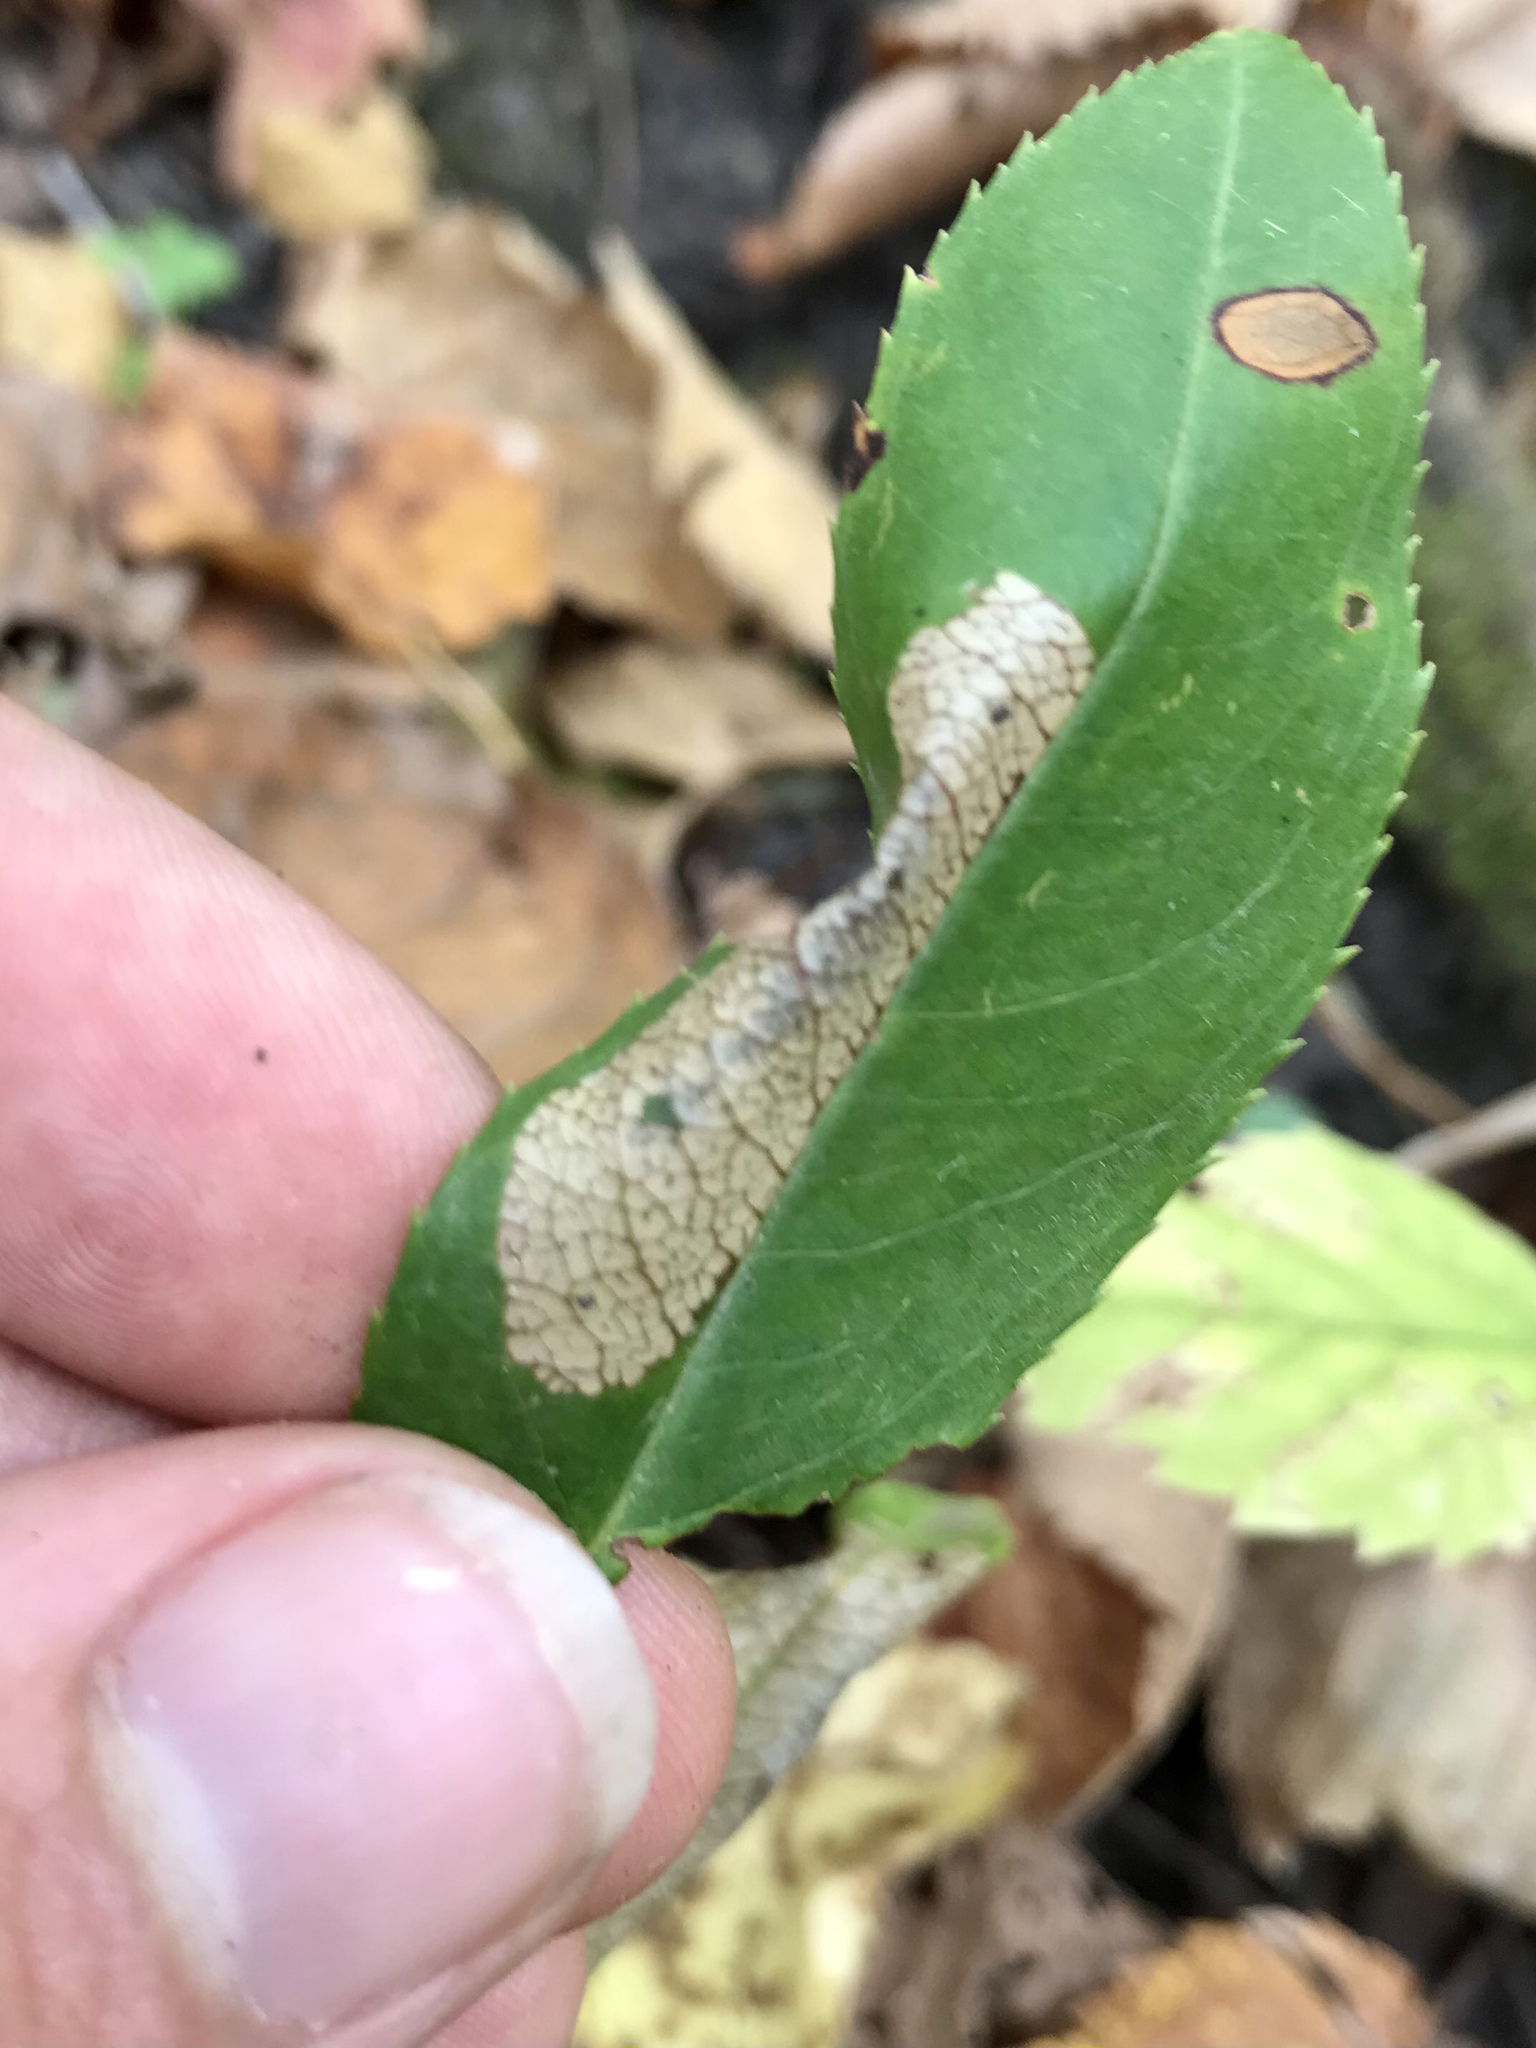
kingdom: Animalia
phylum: Arthropoda
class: Insecta
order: Lepidoptera
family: Gracillariidae
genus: Parornix
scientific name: Parornix geminatella
